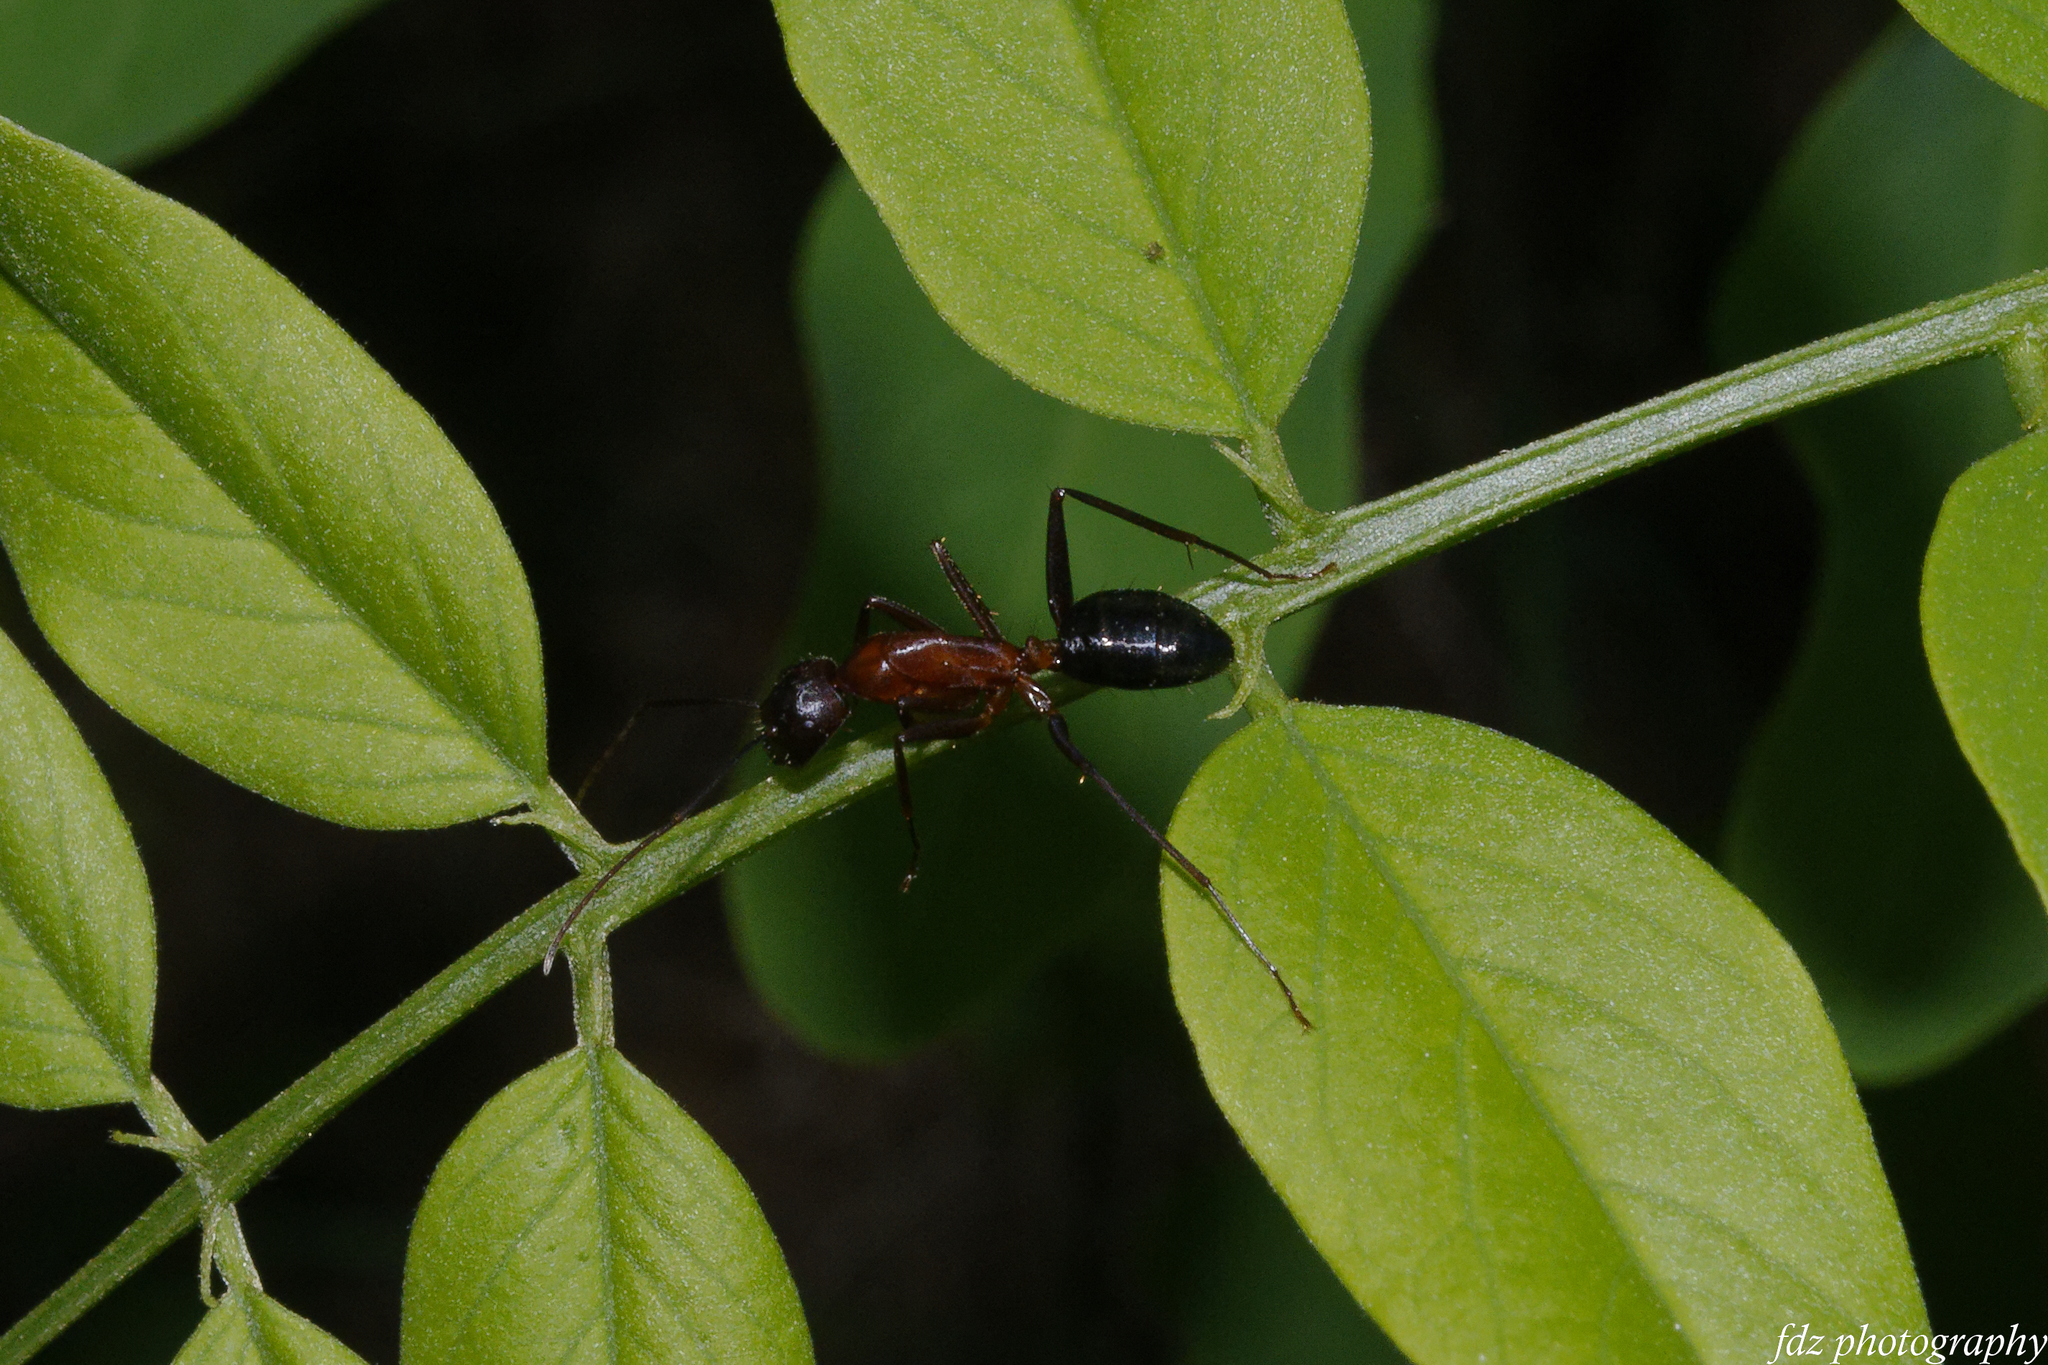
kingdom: Animalia
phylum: Arthropoda
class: Insecta
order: Hymenoptera
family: Formicidae
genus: Camponotus
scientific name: Camponotus barbaricus
